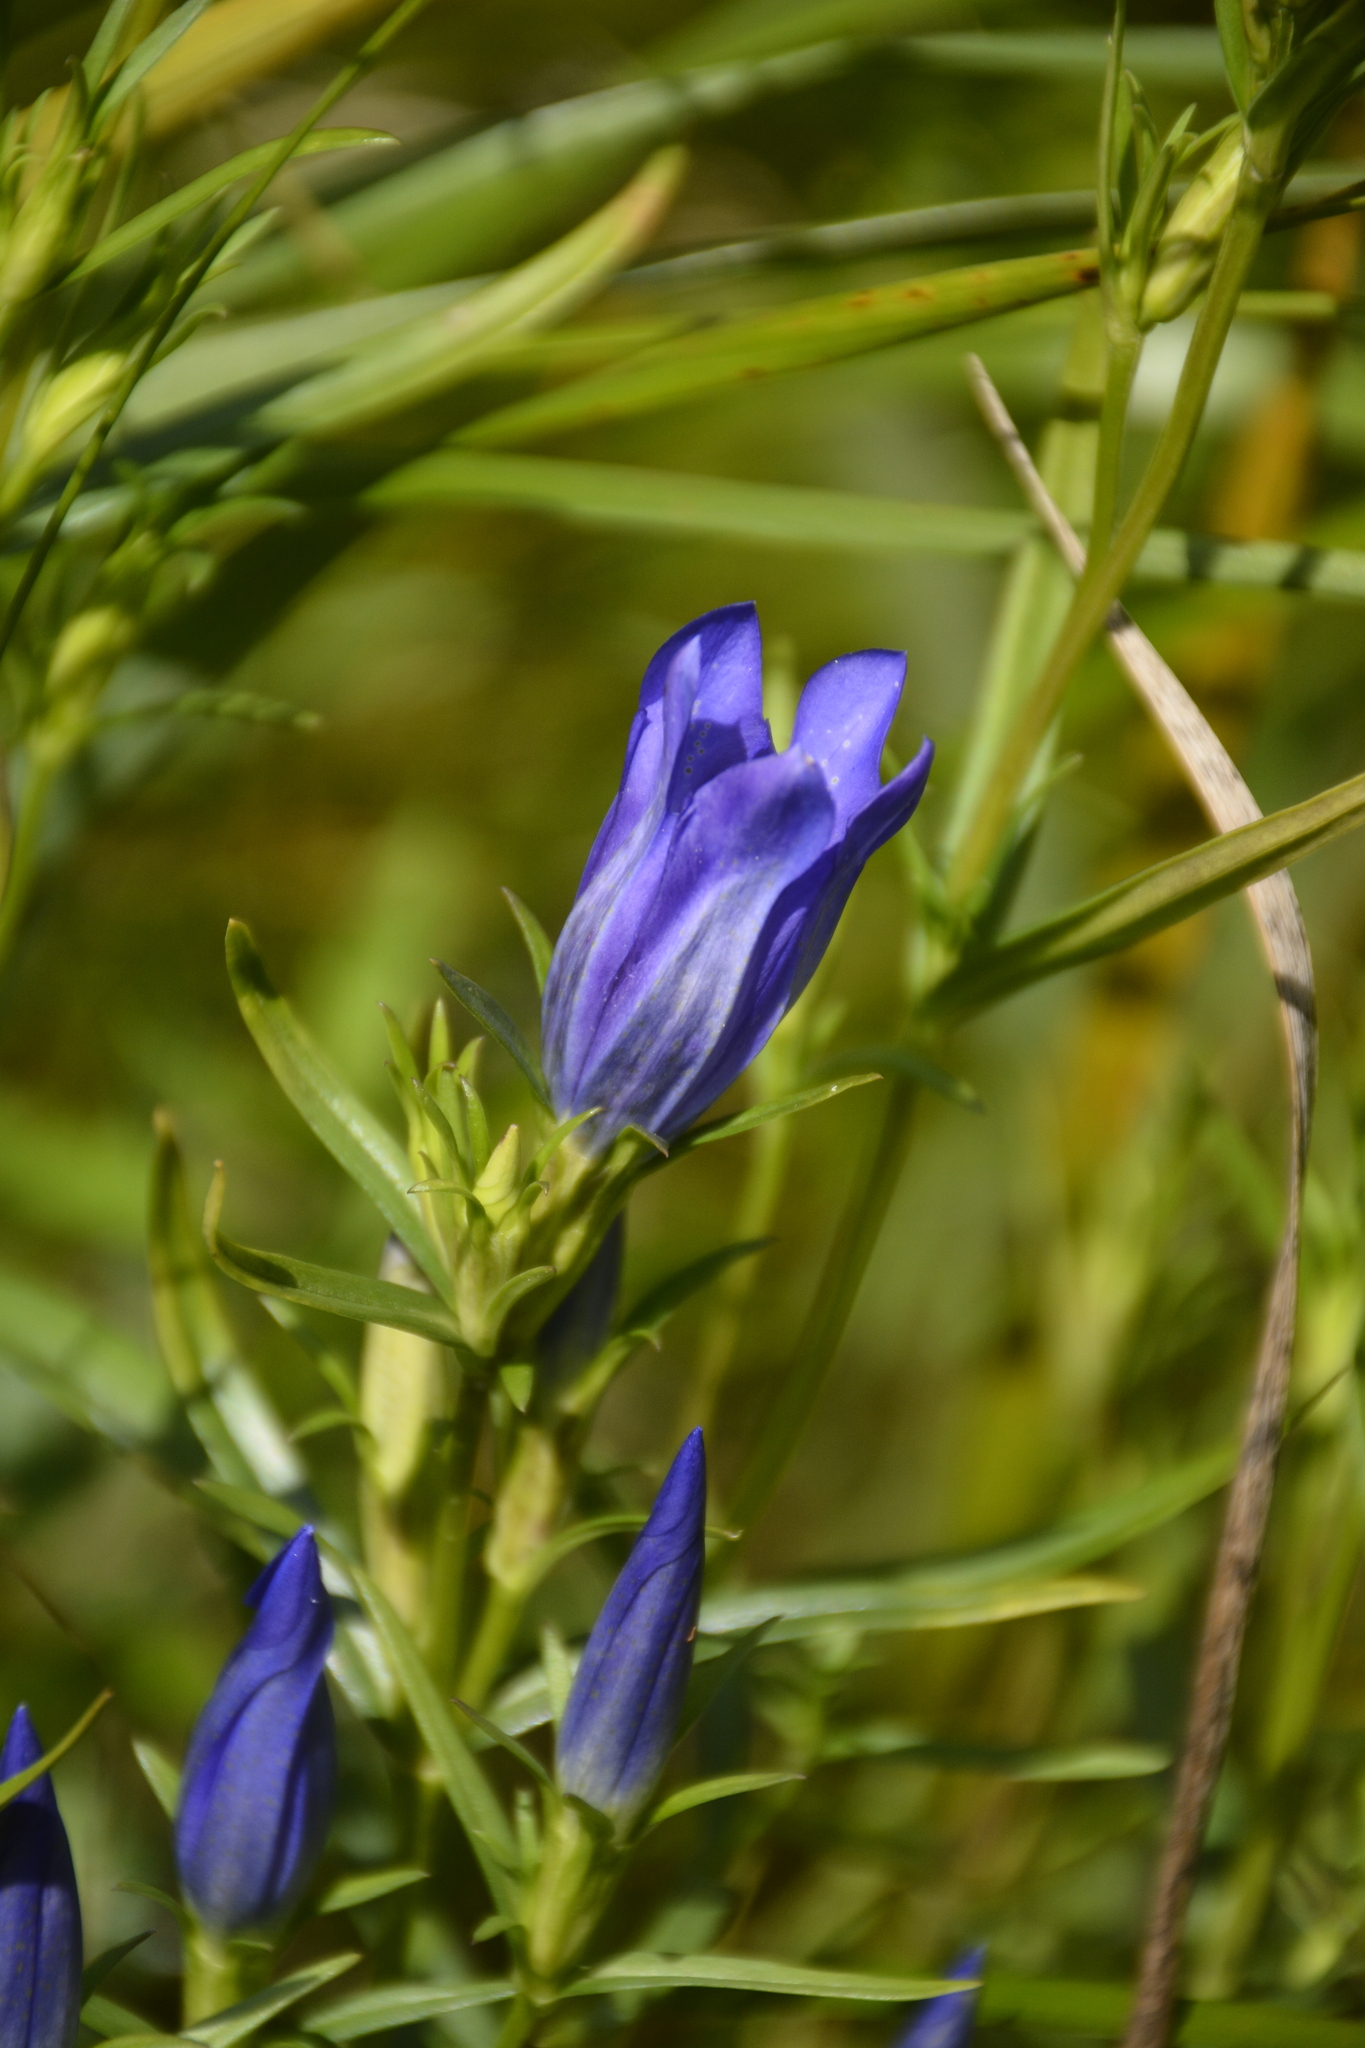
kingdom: Plantae
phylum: Tracheophyta
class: Magnoliopsida
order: Gentianales
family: Gentianaceae
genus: Gentiana
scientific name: Gentiana pneumonanthe
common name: Marsh gentian
